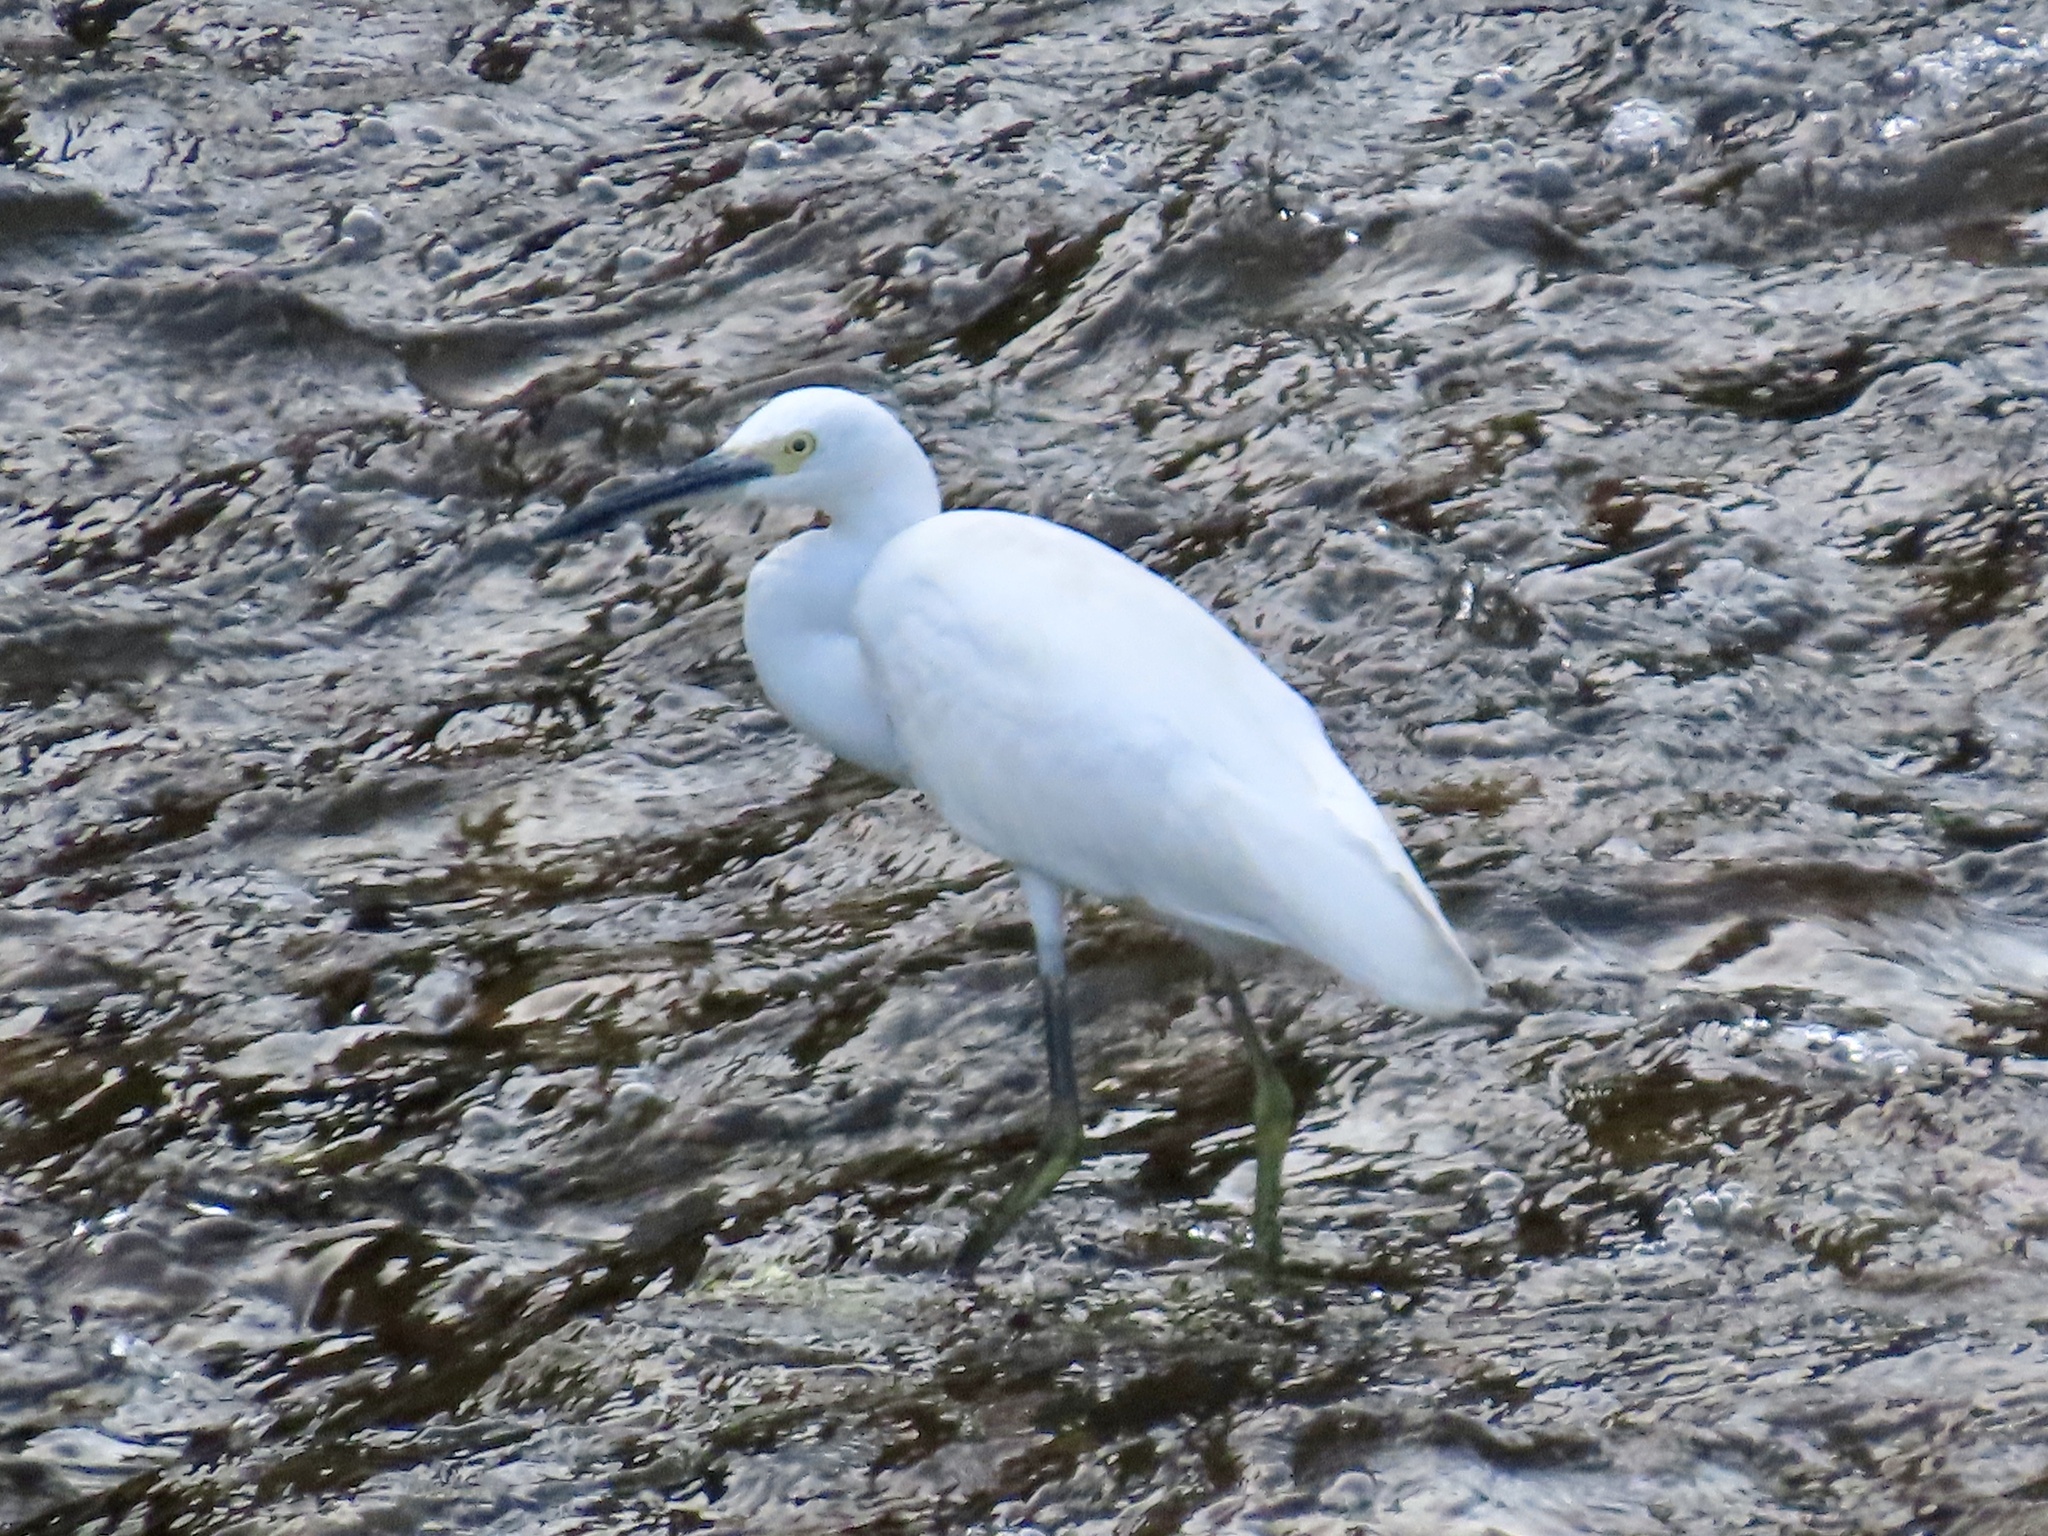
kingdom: Animalia
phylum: Chordata
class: Aves
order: Pelecaniformes
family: Ardeidae
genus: Egretta
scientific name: Egretta garzetta
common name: Little egret
